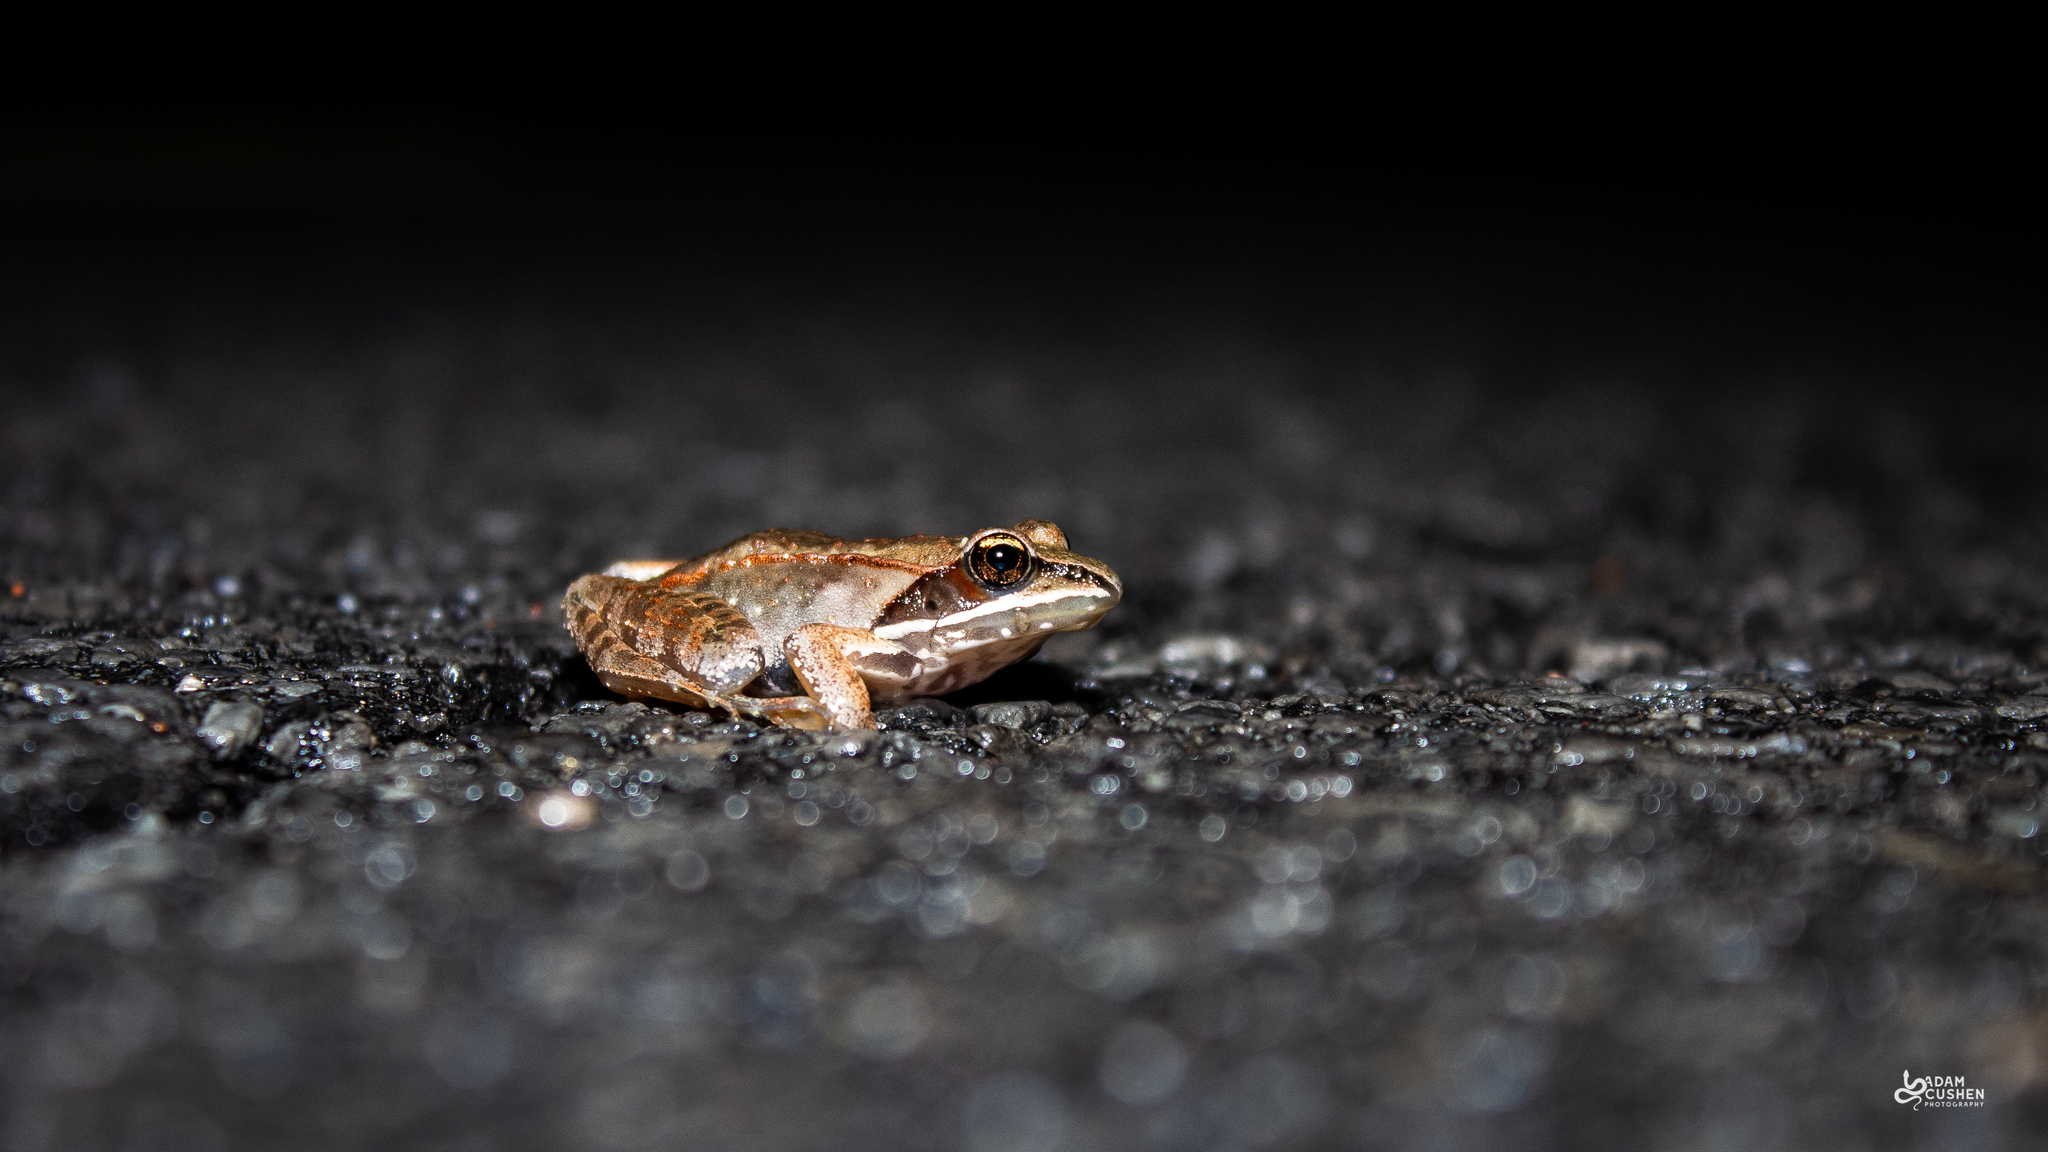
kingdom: Animalia
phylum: Chordata
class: Amphibia
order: Anura
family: Ranidae
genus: Lithobates
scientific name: Lithobates sylvaticus
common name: Wood frog
